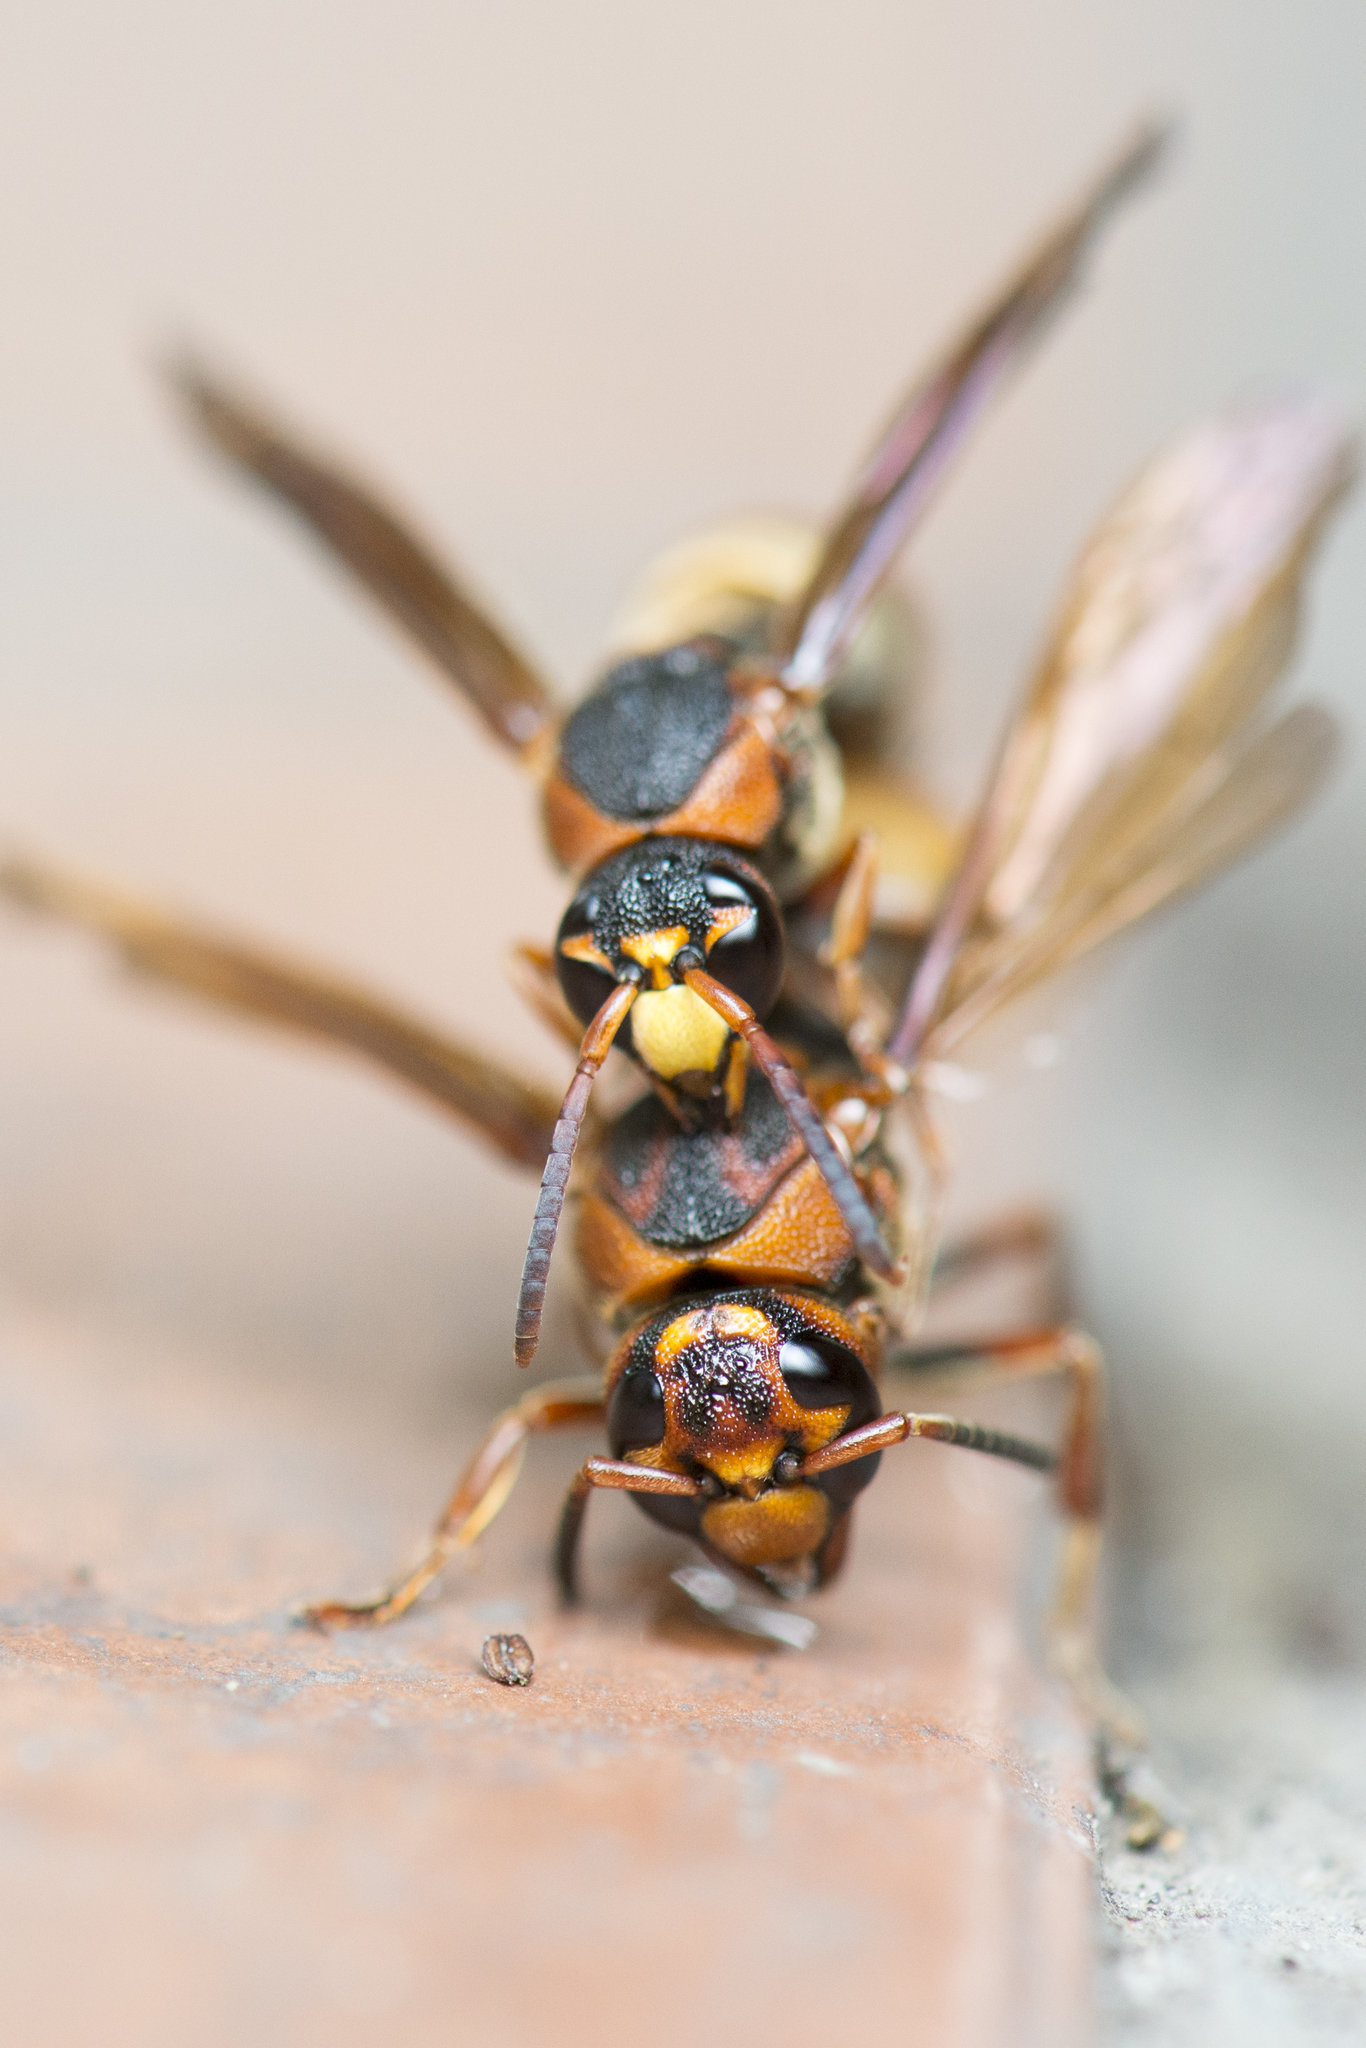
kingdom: Animalia
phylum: Arthropoda
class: Insecta
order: Hymenoptera
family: Eumenidae
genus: Orancistrocerus
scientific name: Orancistrocerus drewseni
